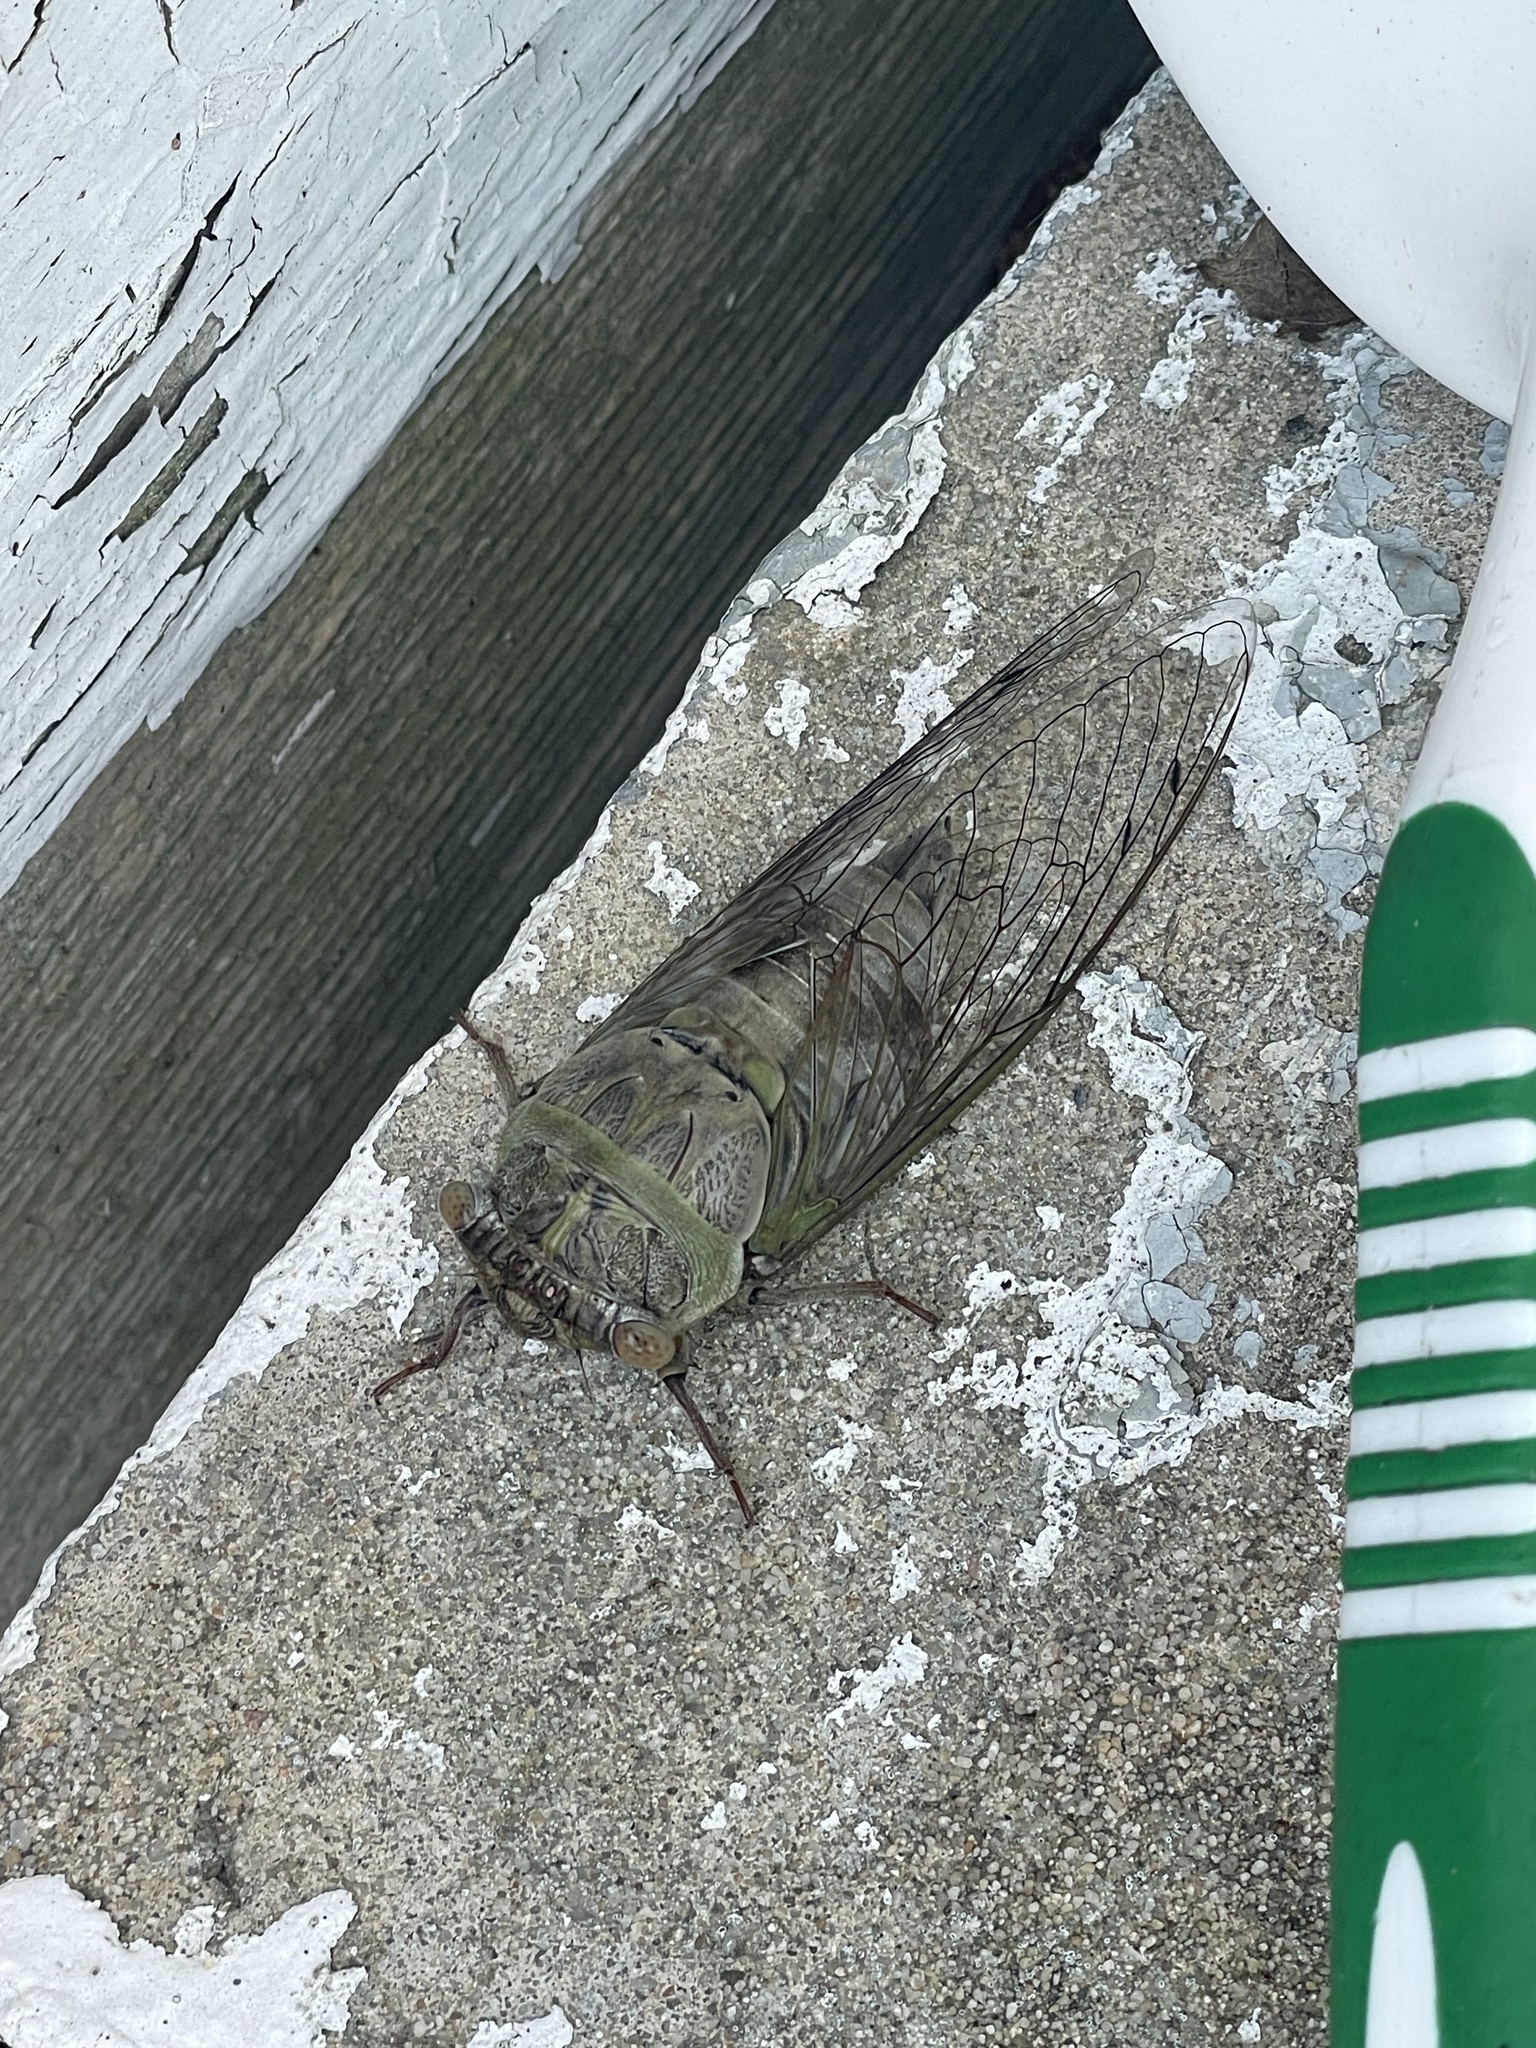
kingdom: Animalia
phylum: Arthropoda
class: Insecta
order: Hemiptera
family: Cicadidae
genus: Diceroprocta
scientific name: Diceroprocta grossa
